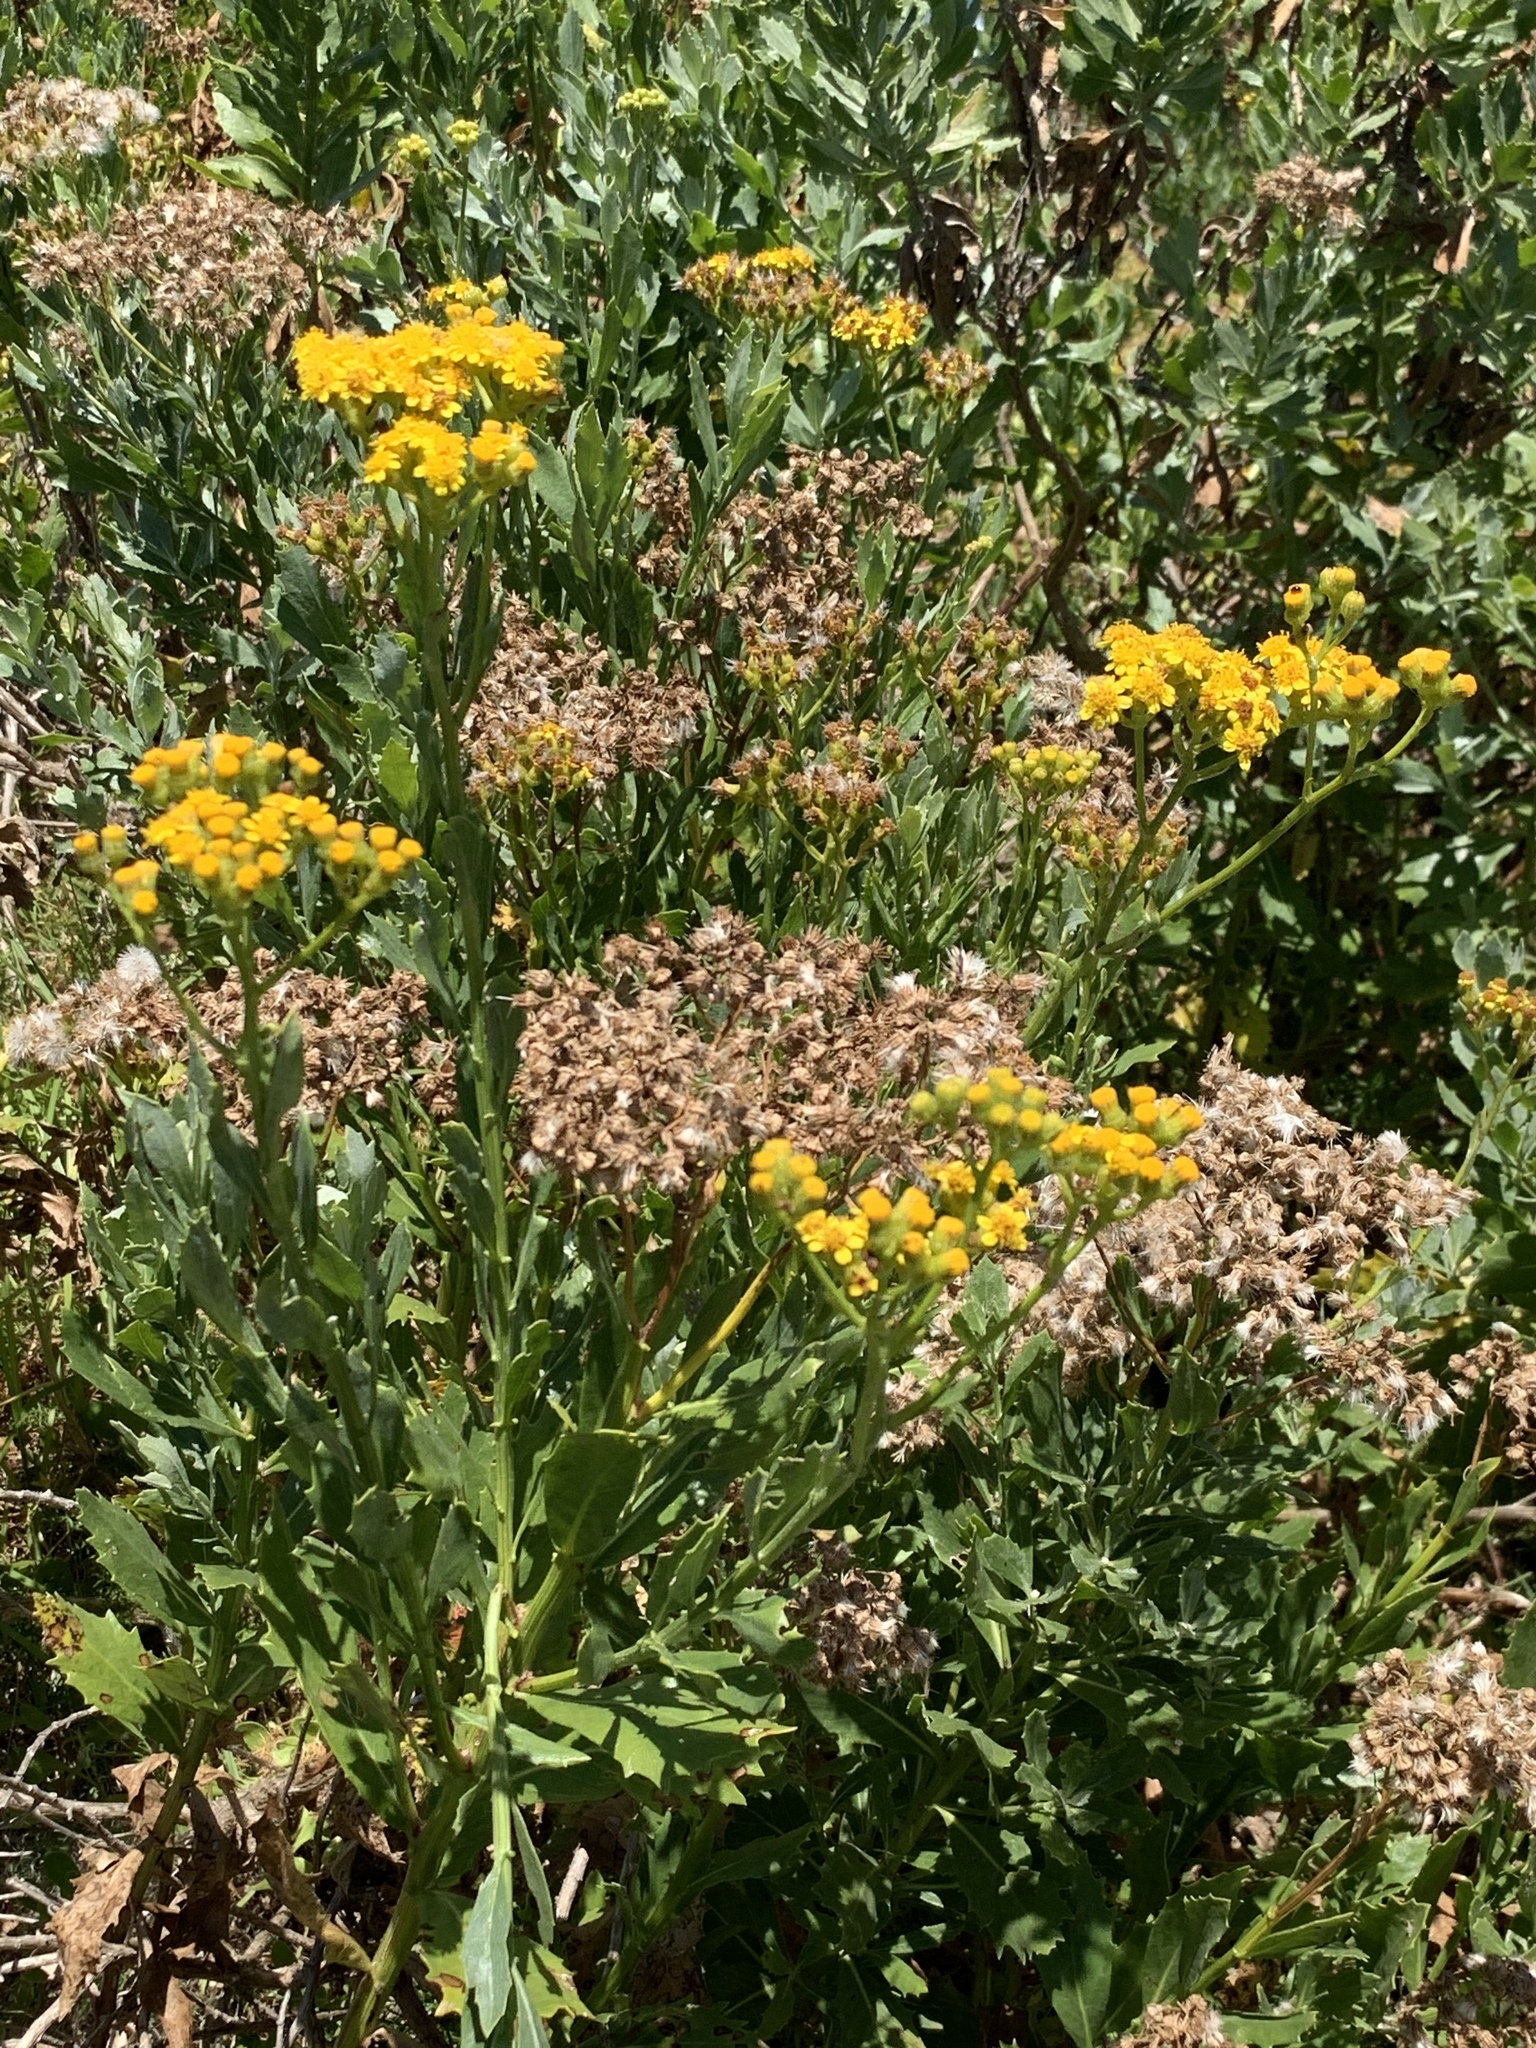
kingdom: Plantae
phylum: Tracheophyta
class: Magnoliopsida
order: Asterales
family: Asteraceae
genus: Senecio
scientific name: Senecio halimifolius
